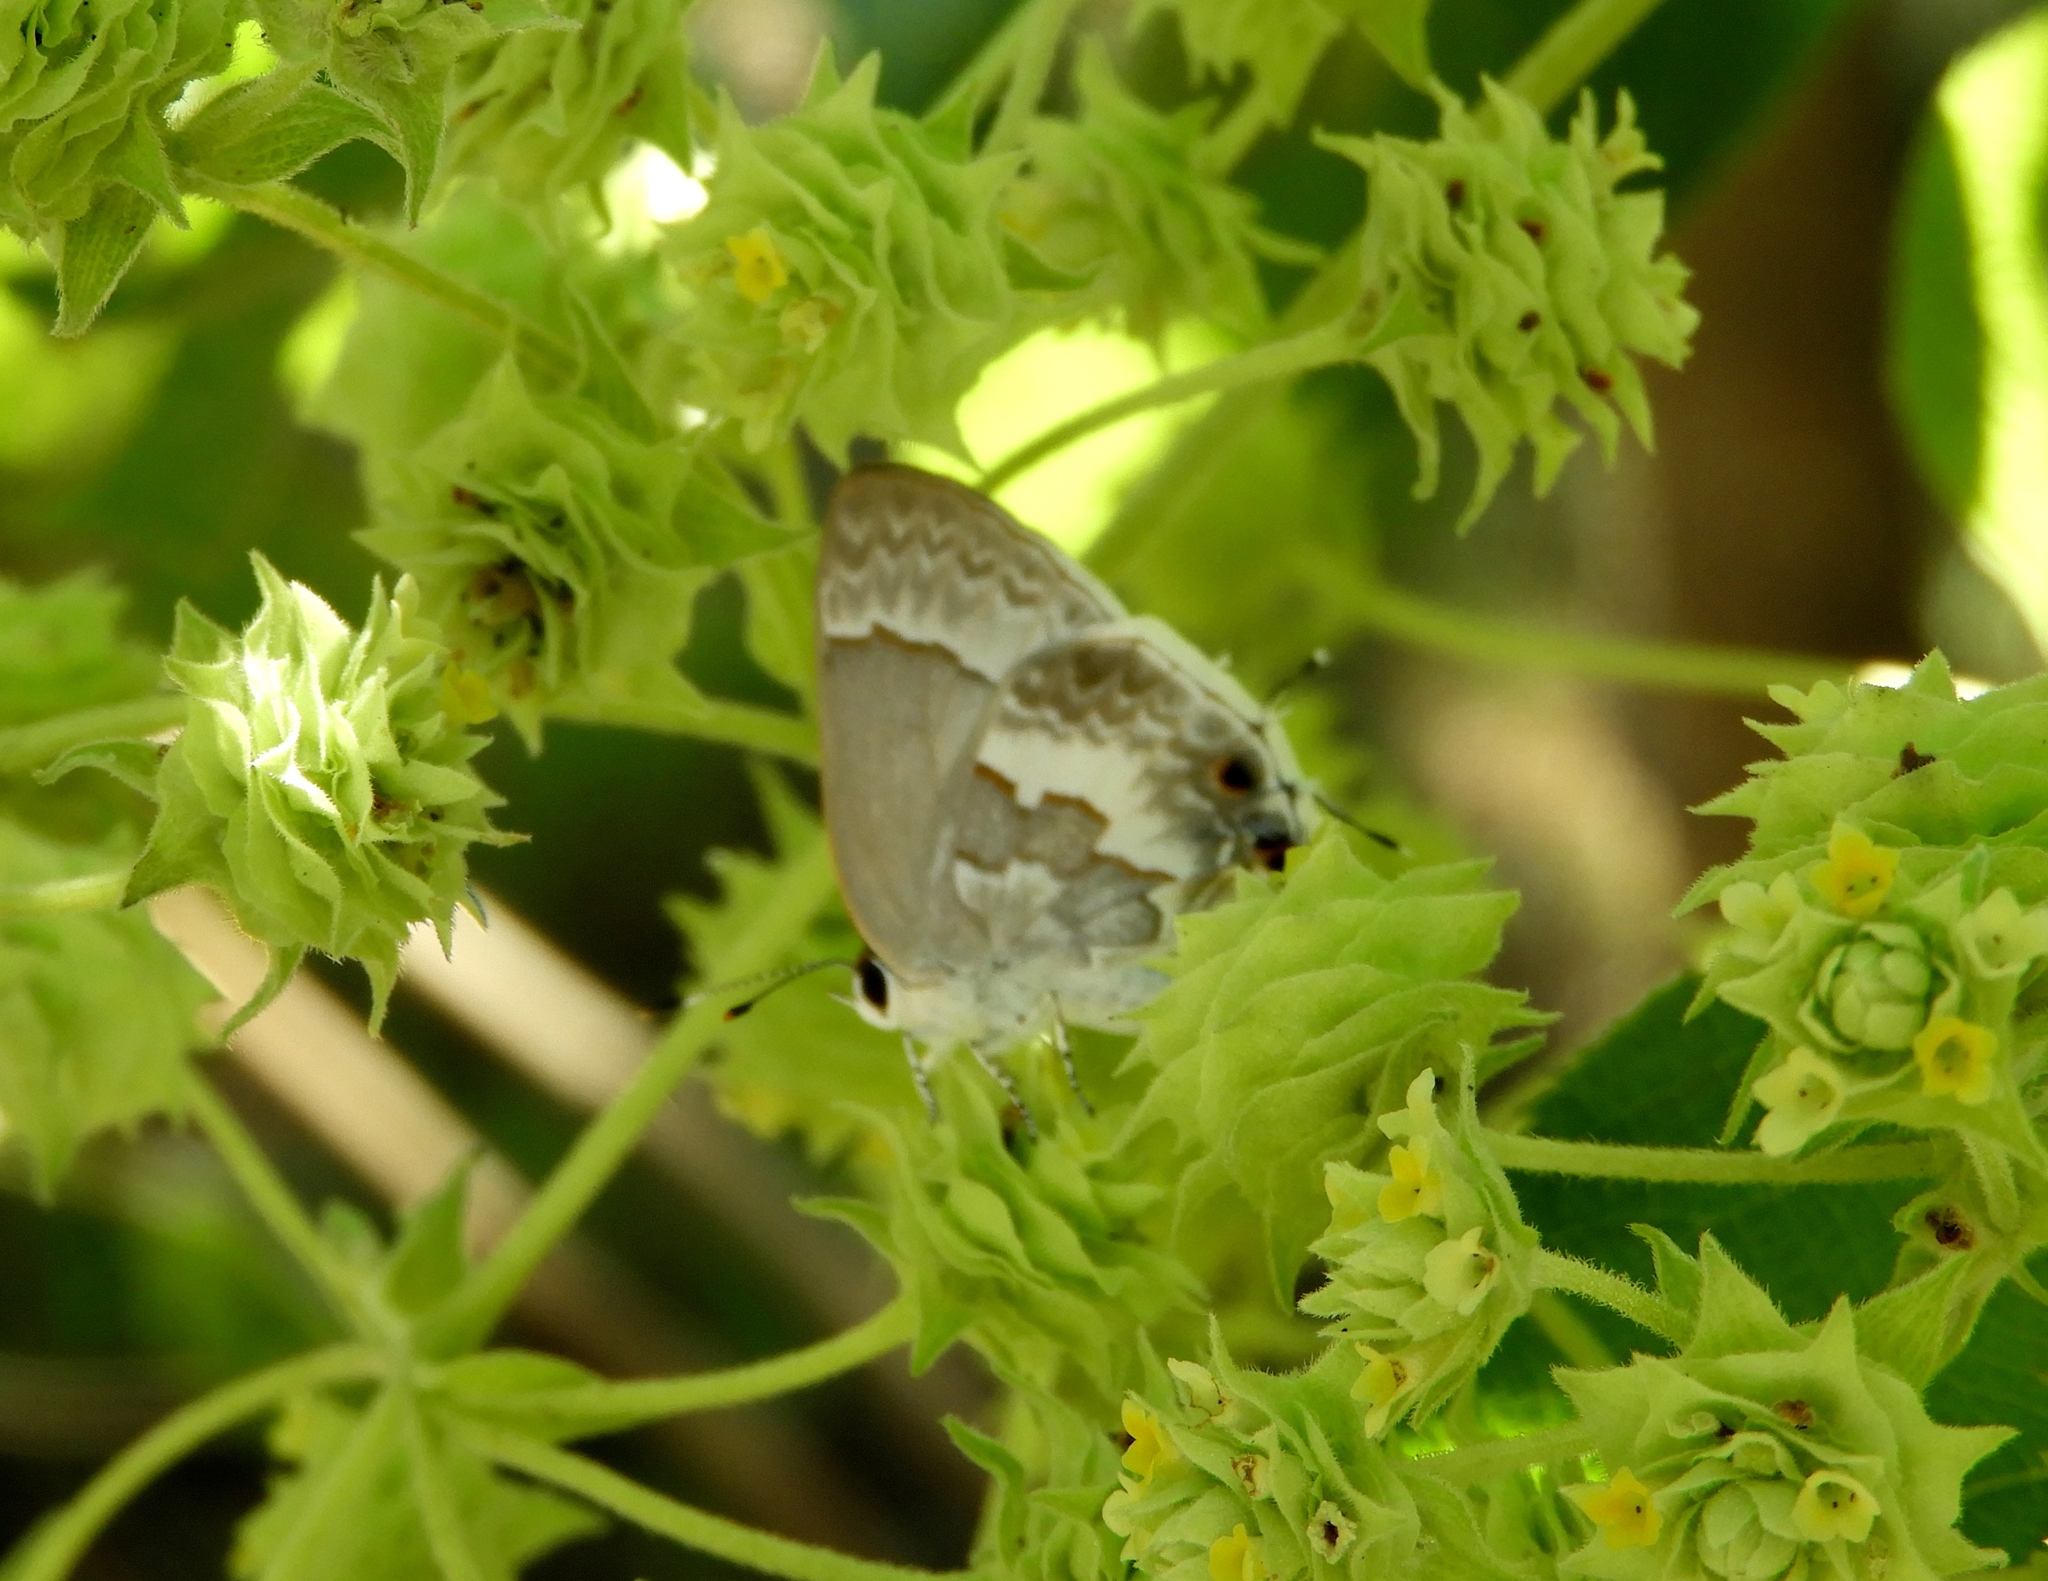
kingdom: Animalia
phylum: Arthropoda
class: Insecta
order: Lepidoptera
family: Lycaenidae
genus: Strymon
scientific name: Strymon albata
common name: White scrub-hairstreak
